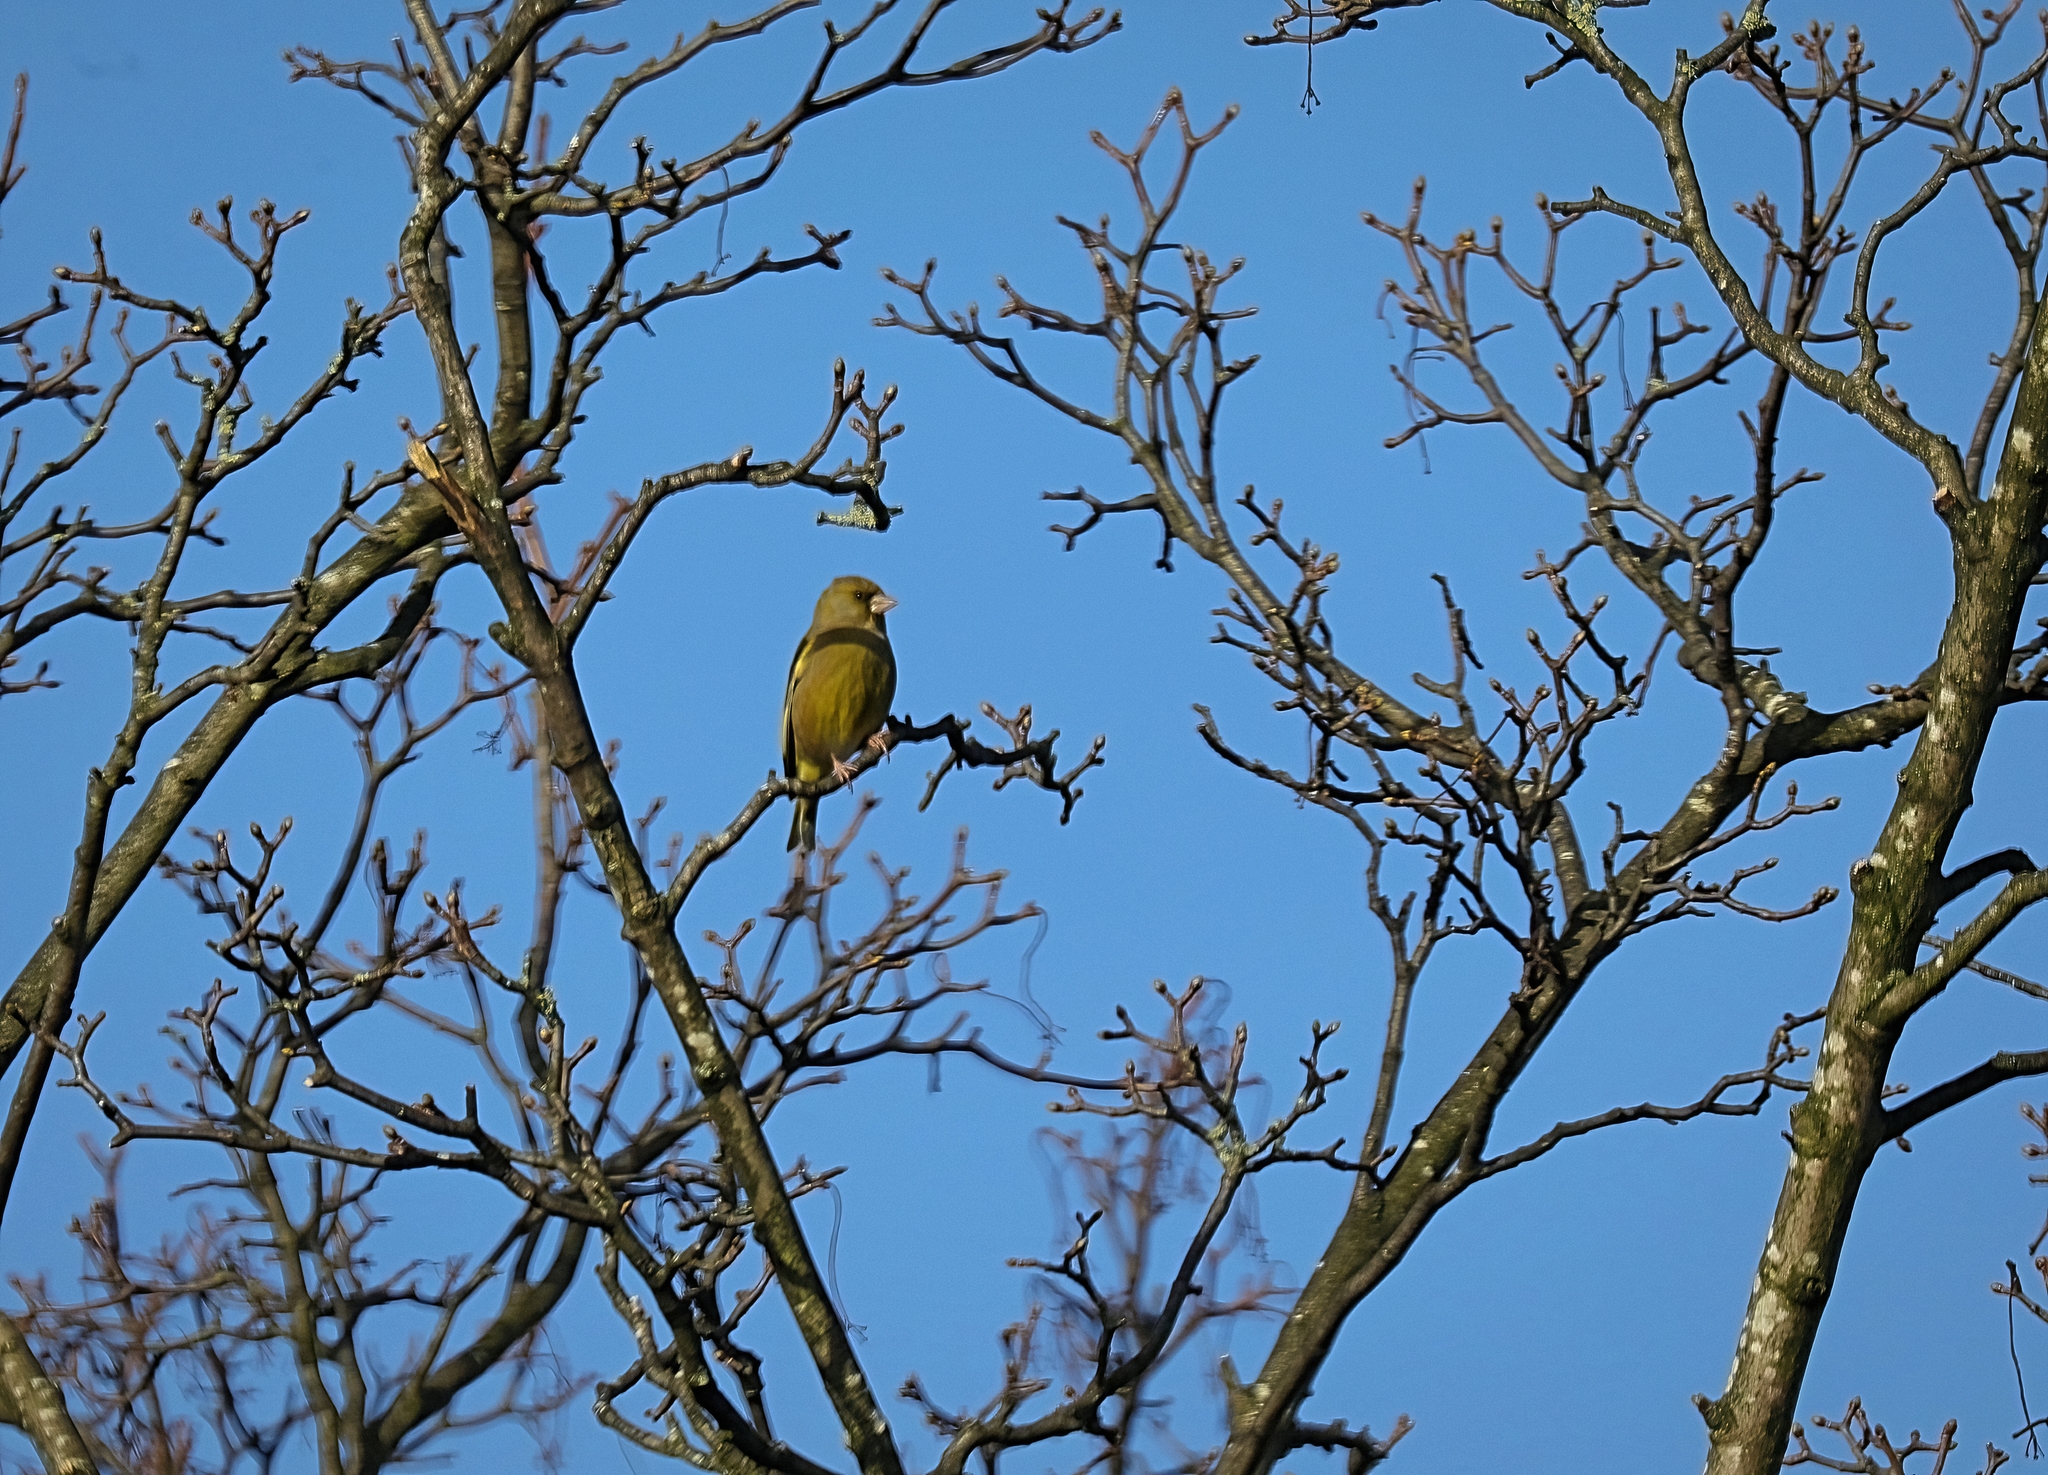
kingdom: Plantae
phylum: Tracheophyta
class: Liliopsida
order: Poales
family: Poaceae
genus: Chloris
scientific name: Chloris chloris
